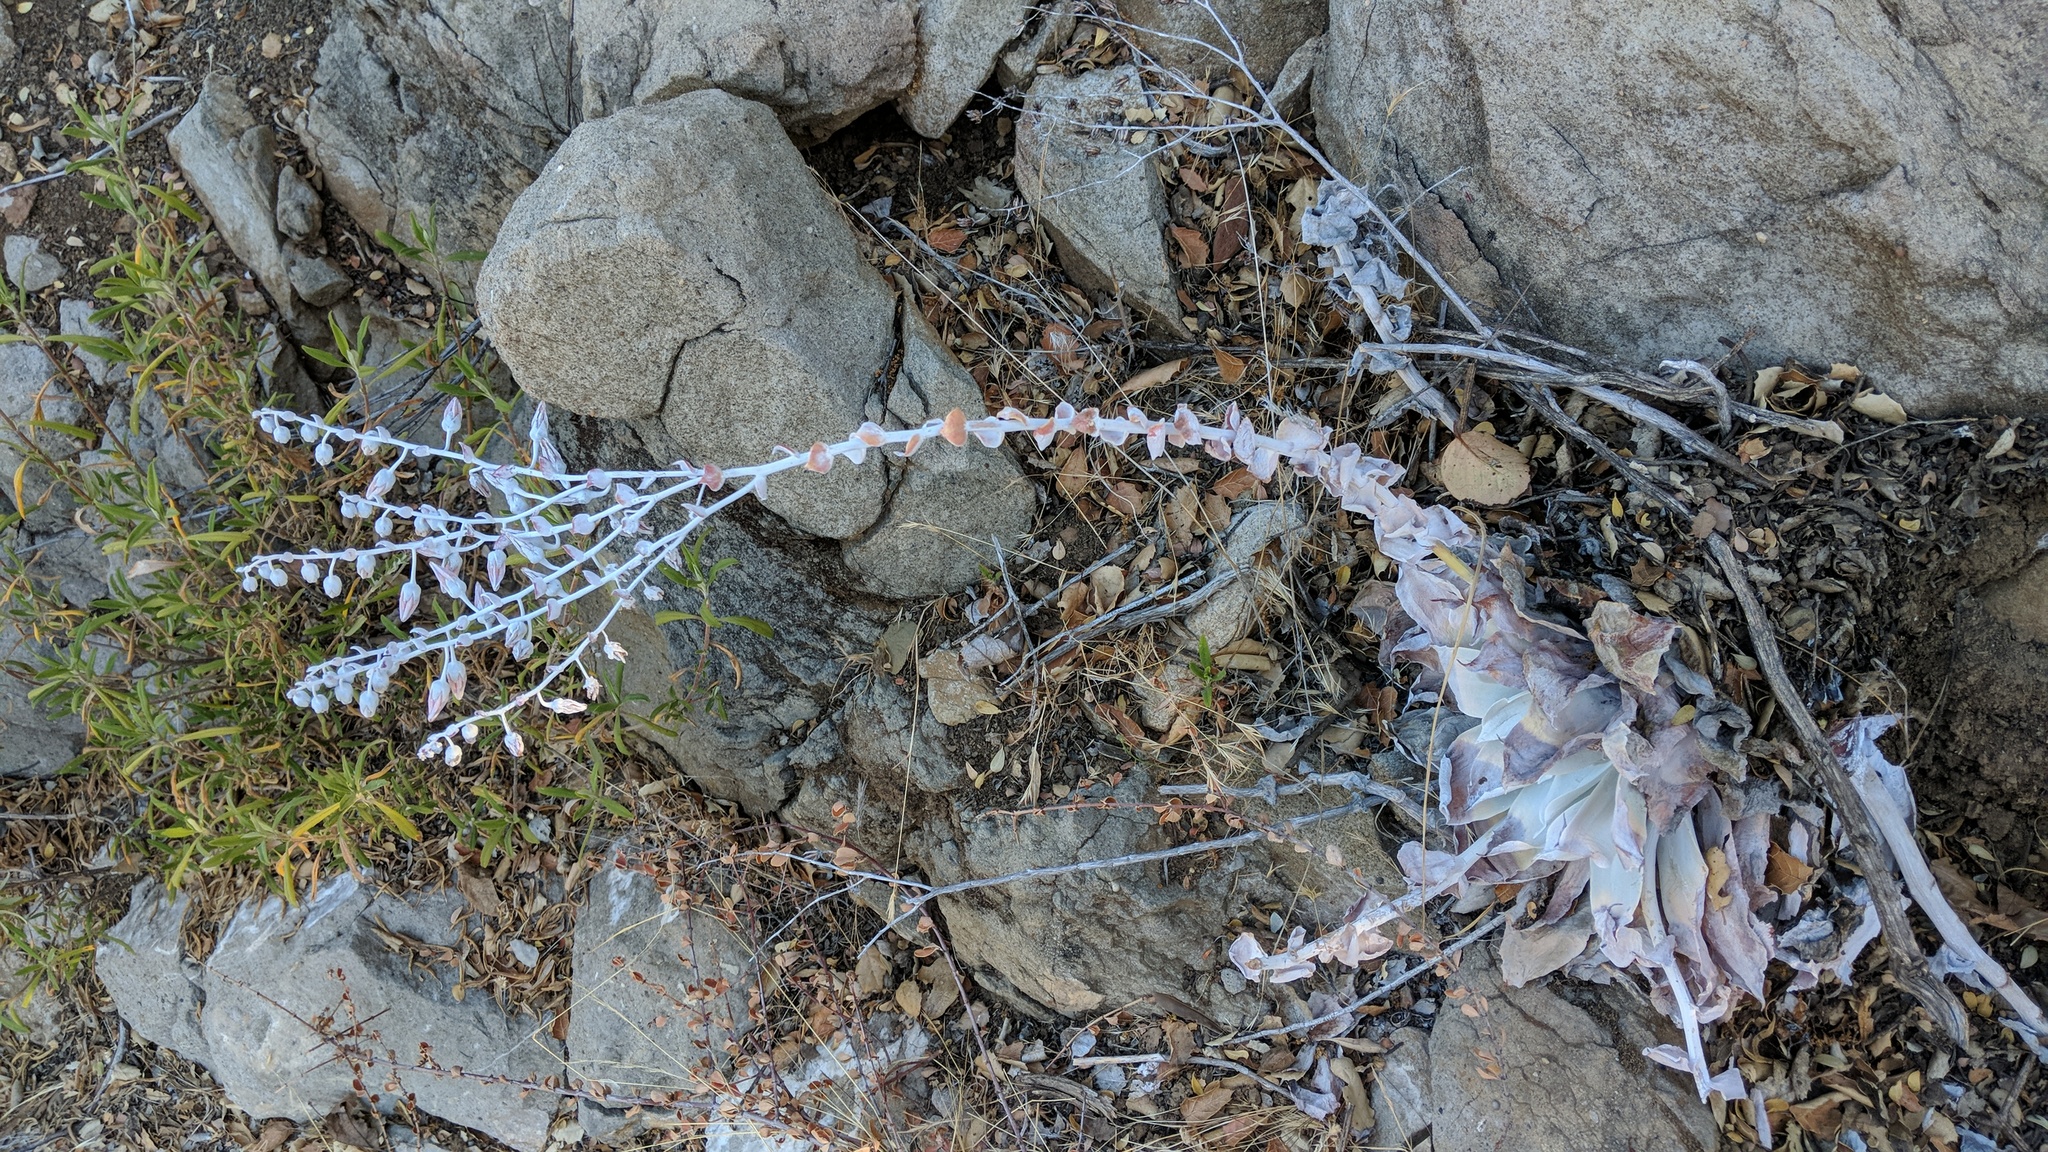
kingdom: Plantae
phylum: Tracheophyta
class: Magnoliopsida
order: Saxifragales
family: Crassulaceae
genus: Dudleya
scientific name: Dudleya pulverulenta
